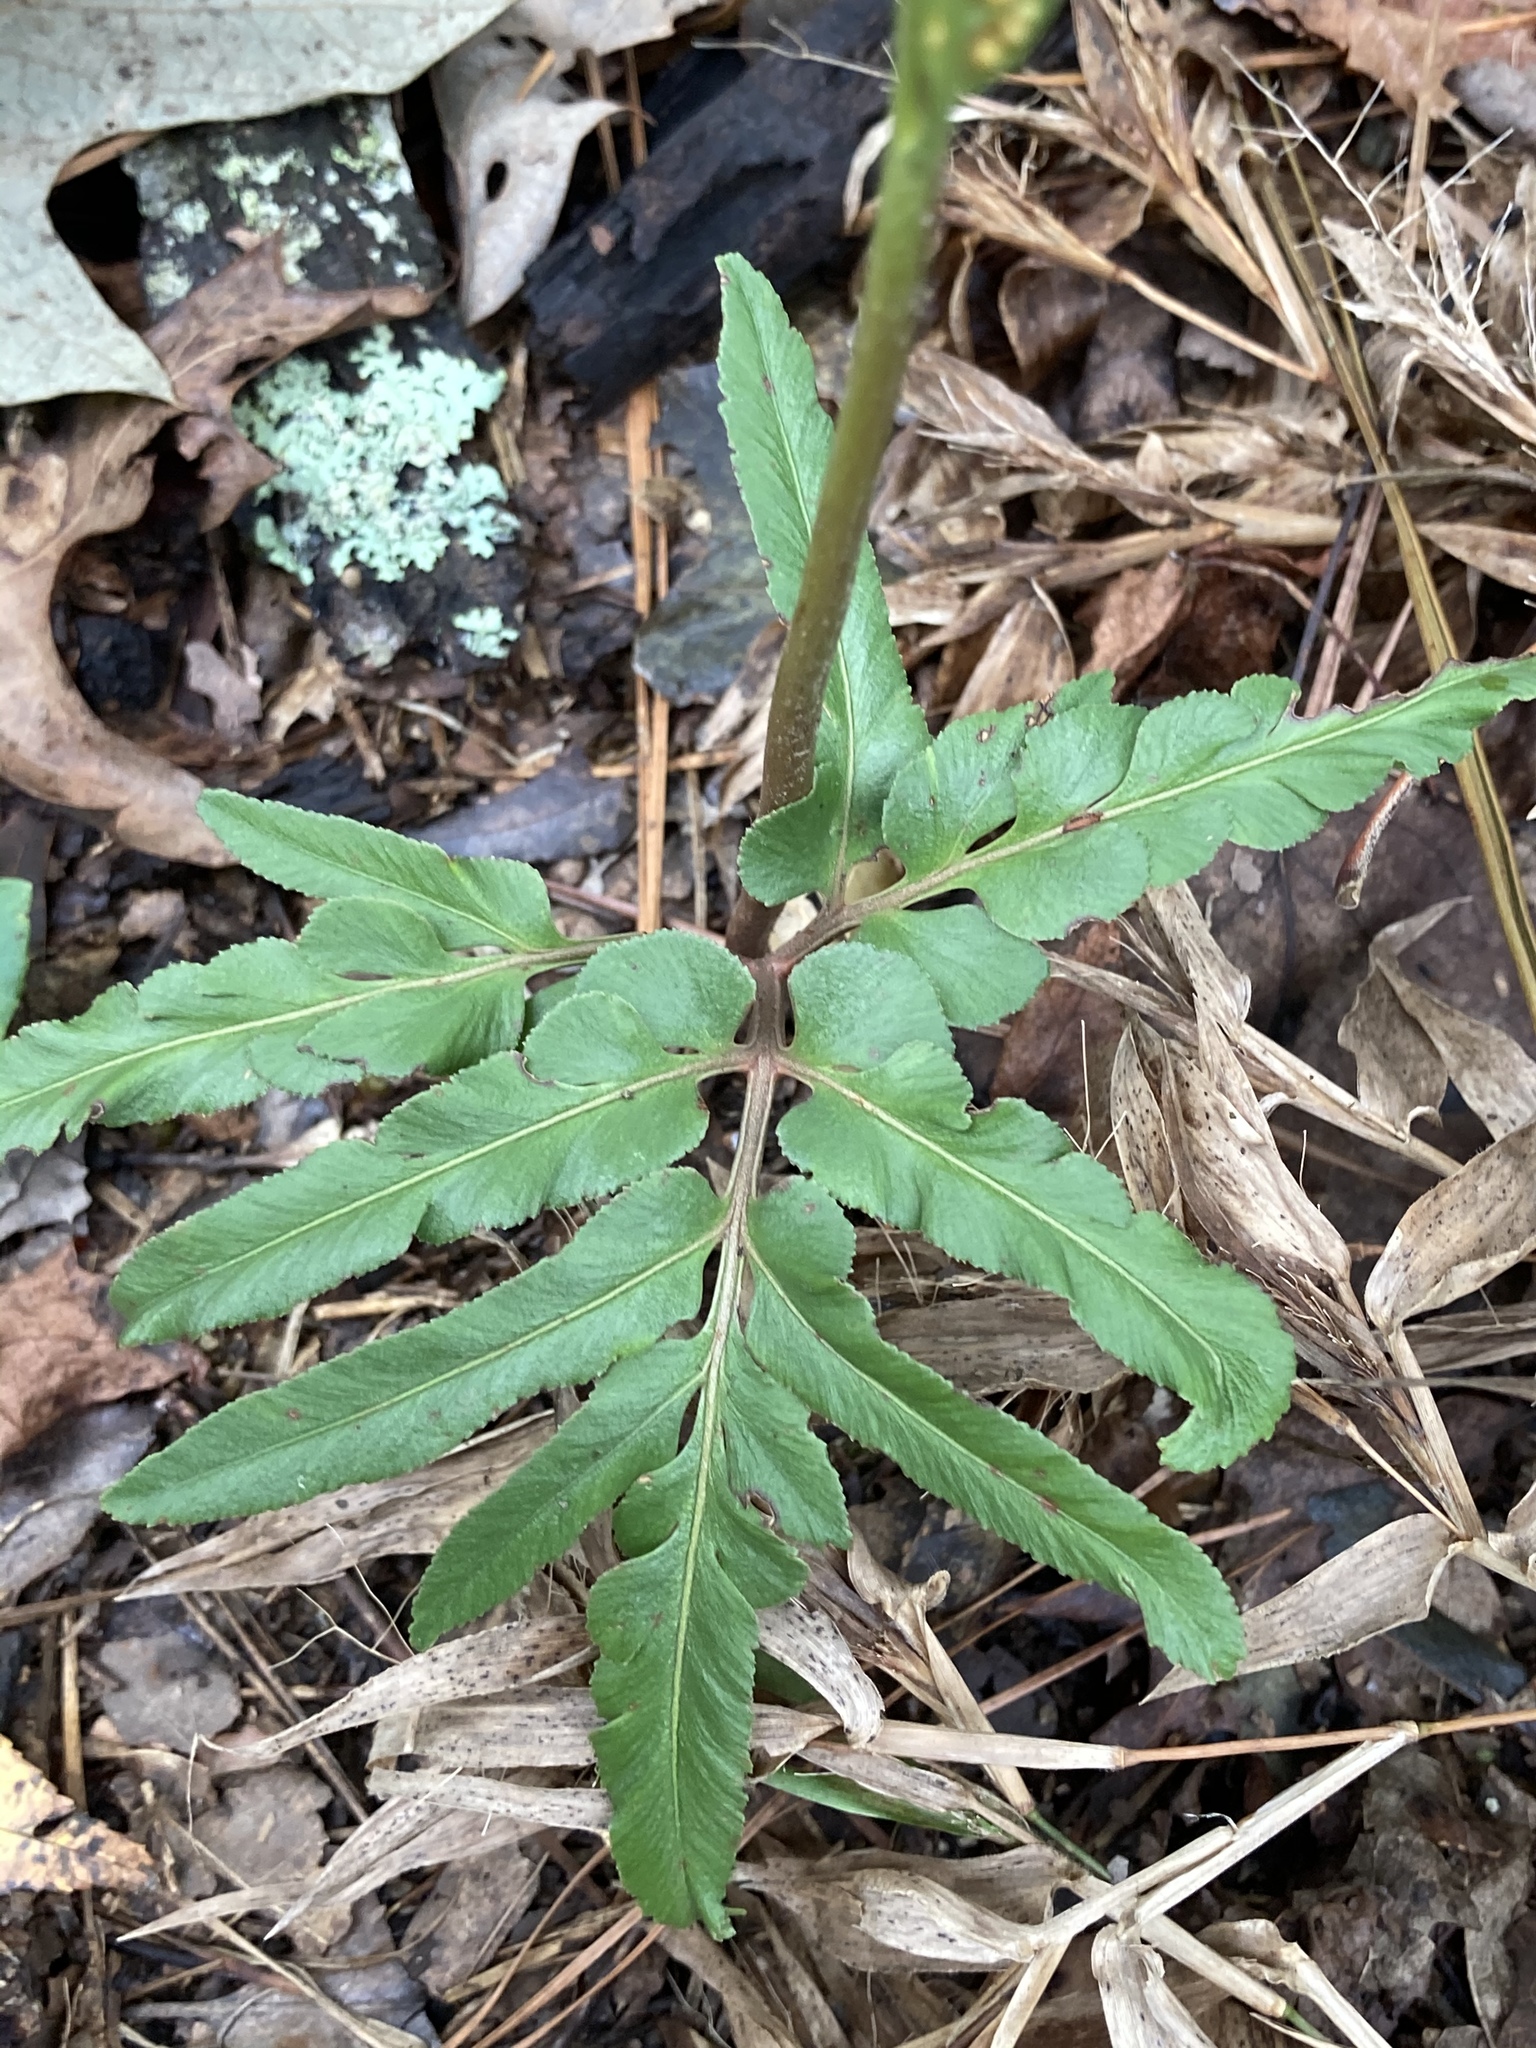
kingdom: Plantae
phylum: Tracheophyta
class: Polypodiopsida
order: Ophioglossales
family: Ophioglossaceae
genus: Sceptridium
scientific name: Sceptridium biternatum
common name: Sparse-lobed grapefern
